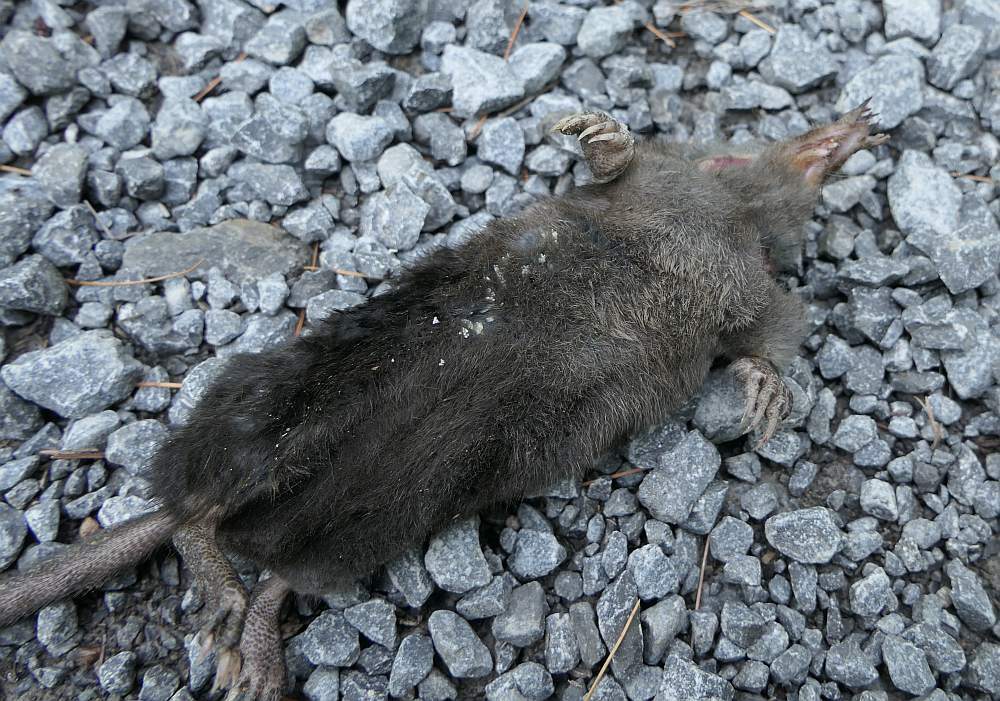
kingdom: Animalia
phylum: Chordata
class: Mammalia
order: Soricomorpha
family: Talpidae
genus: Condylura
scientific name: Condylura cristata
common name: Star-nosed mole
